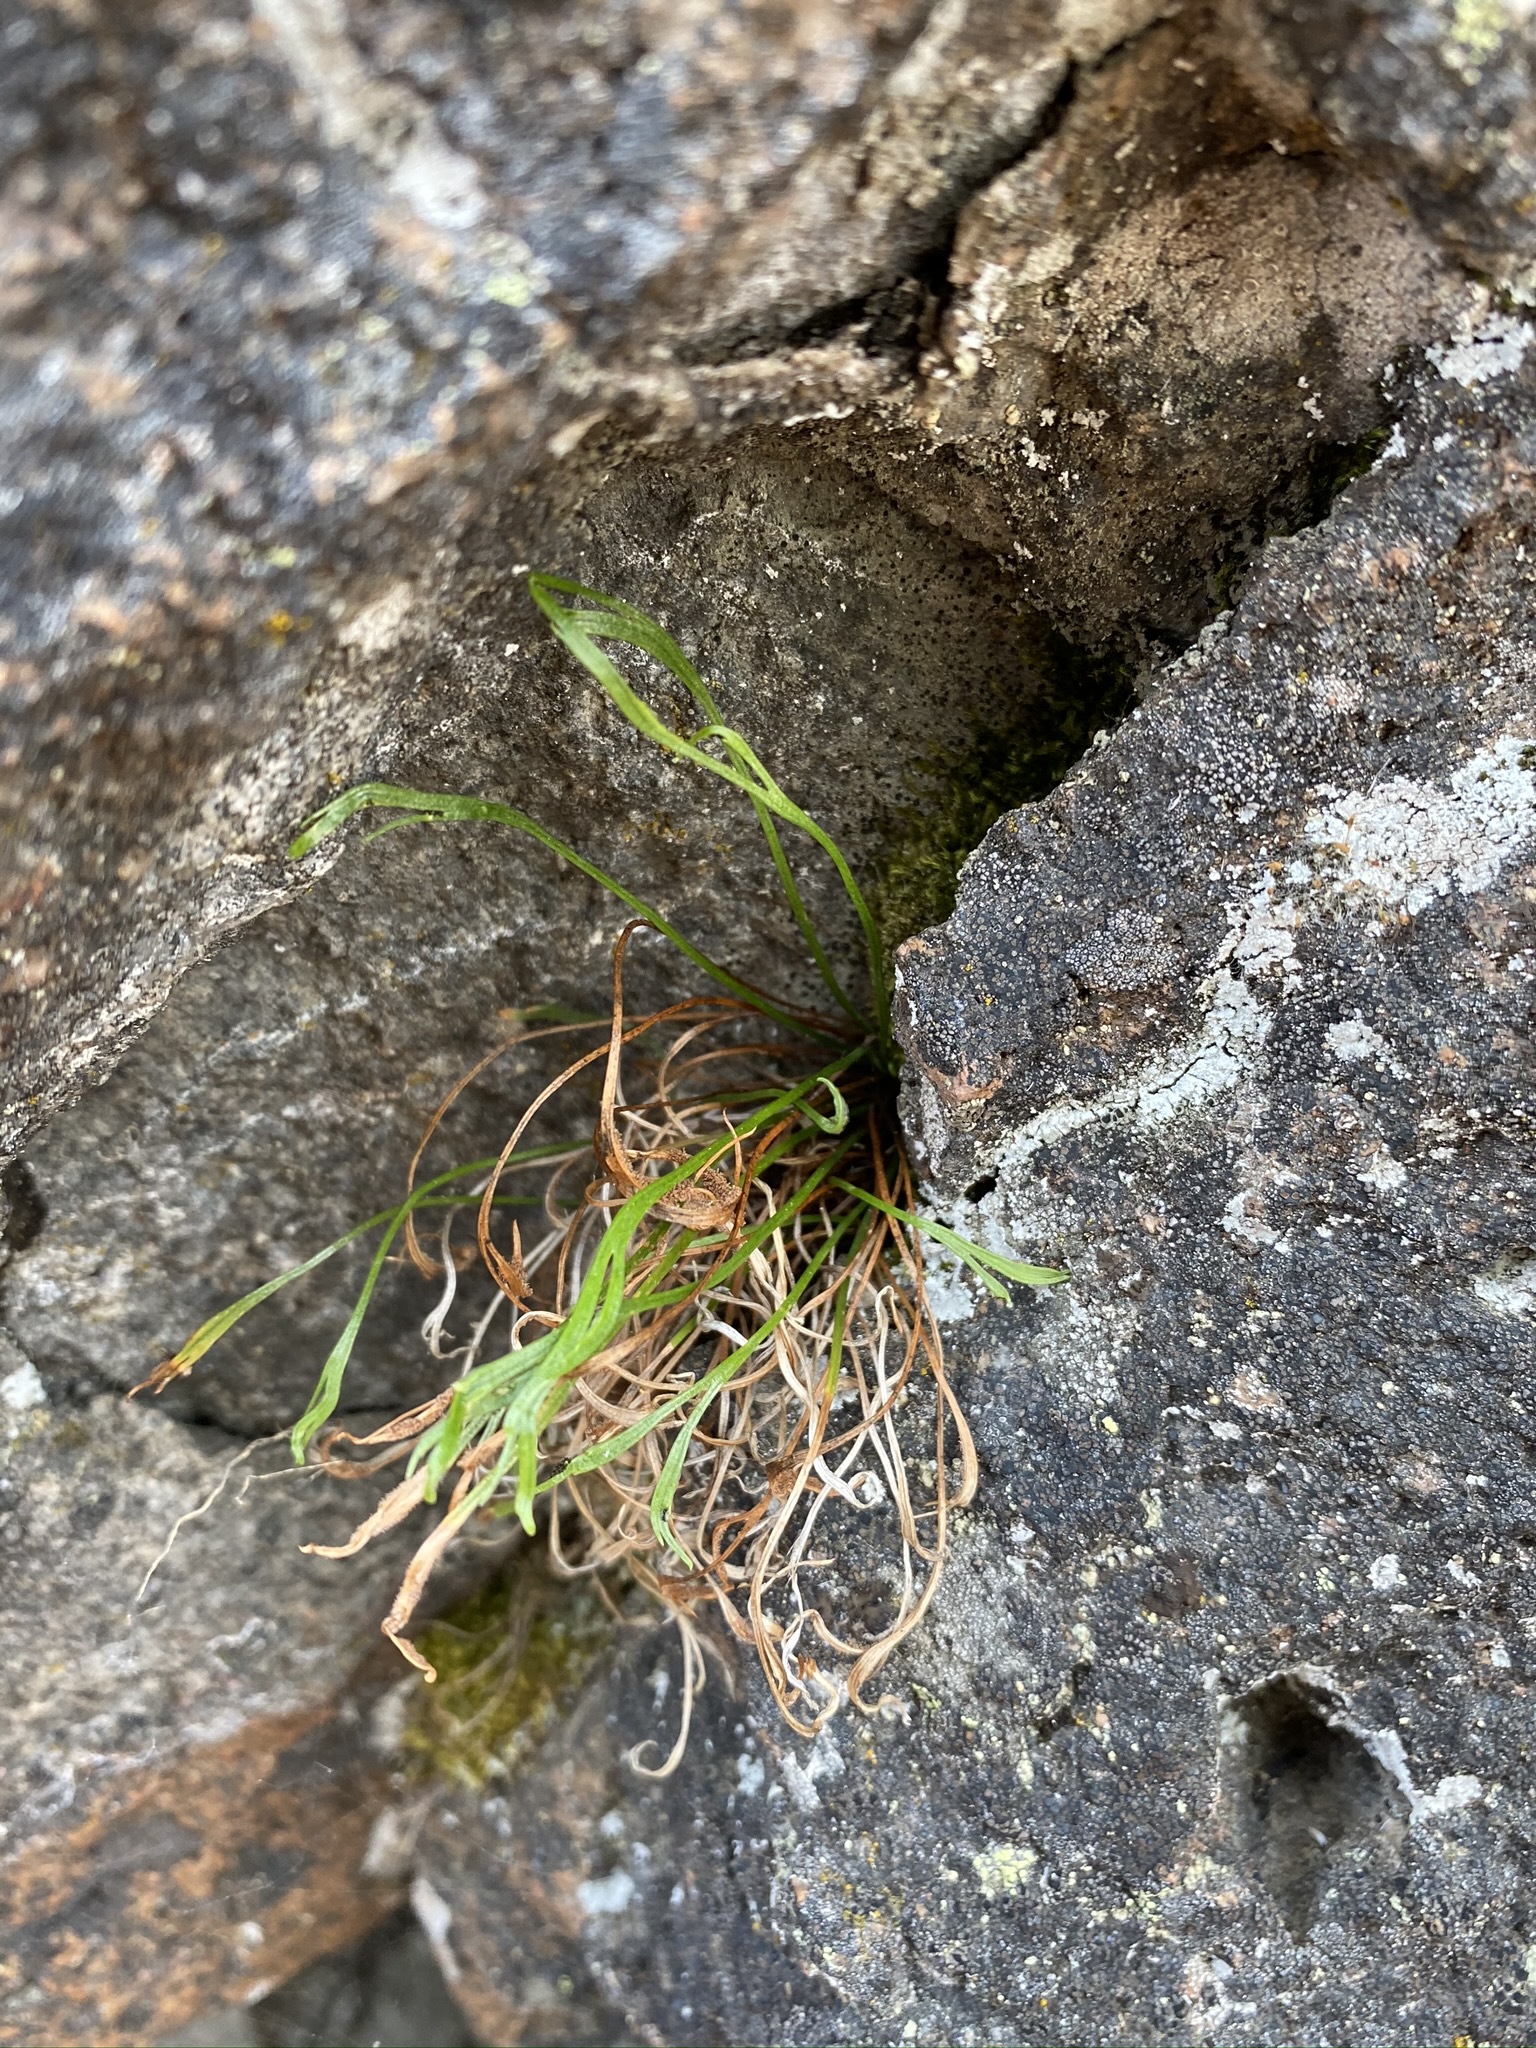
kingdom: Plantae
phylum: Tracheophyta
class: Polypodiopsida
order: Polypodiales
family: Aspleniaceae
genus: Asplenium
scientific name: Asplenium septentrionale
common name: Forked spleenwort
